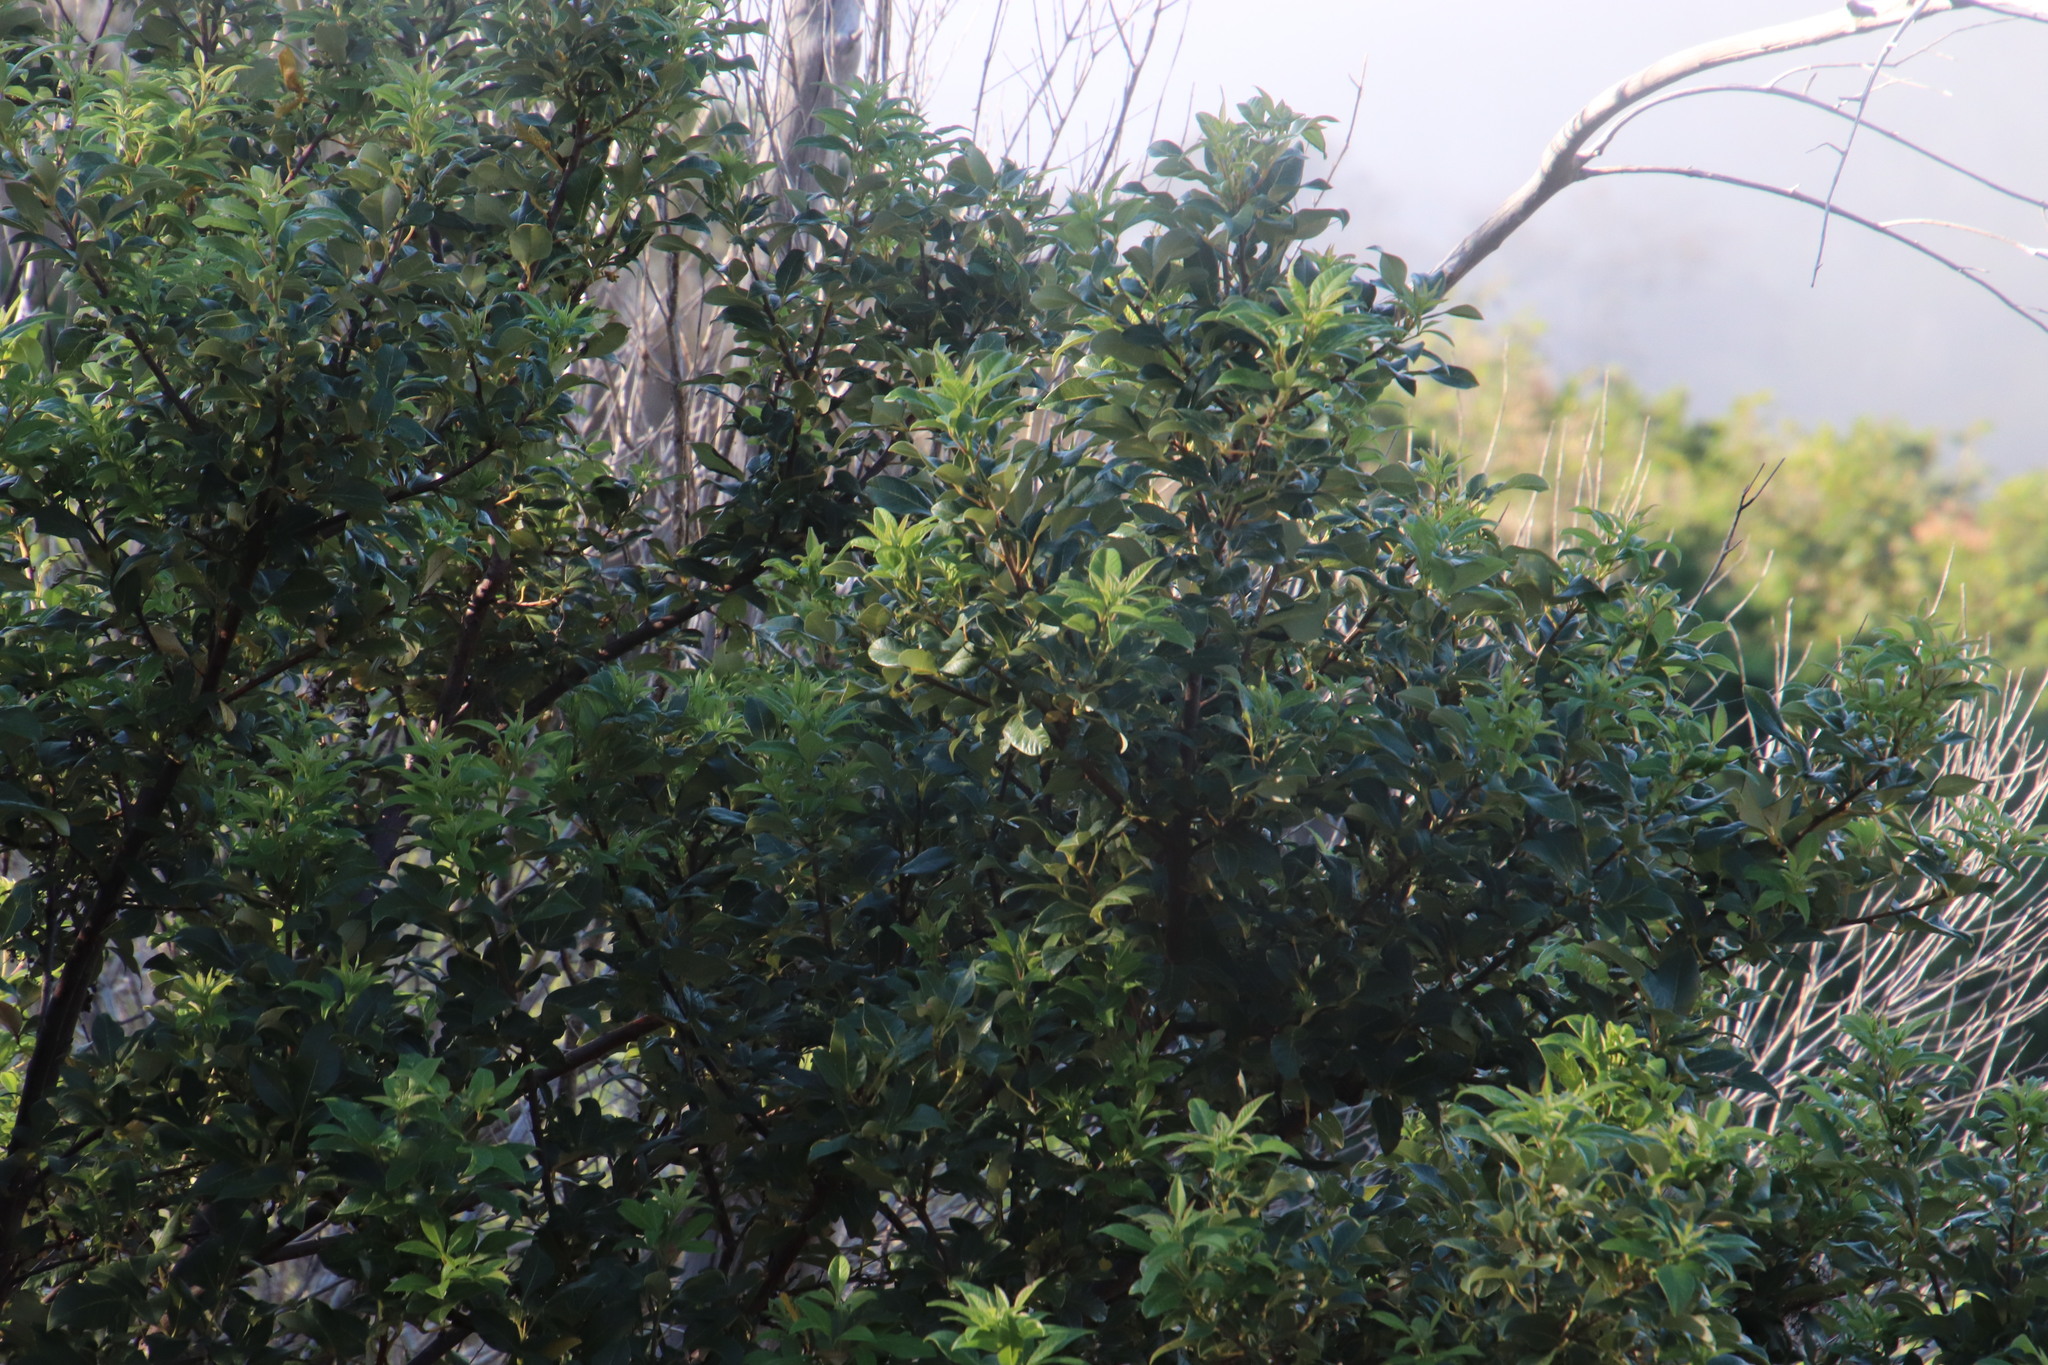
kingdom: Plantae
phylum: Tracheophyta
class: Magnoliopsida
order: Sapindales
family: Anacardiaceae
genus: Searsia
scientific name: Searsia tomentosa
